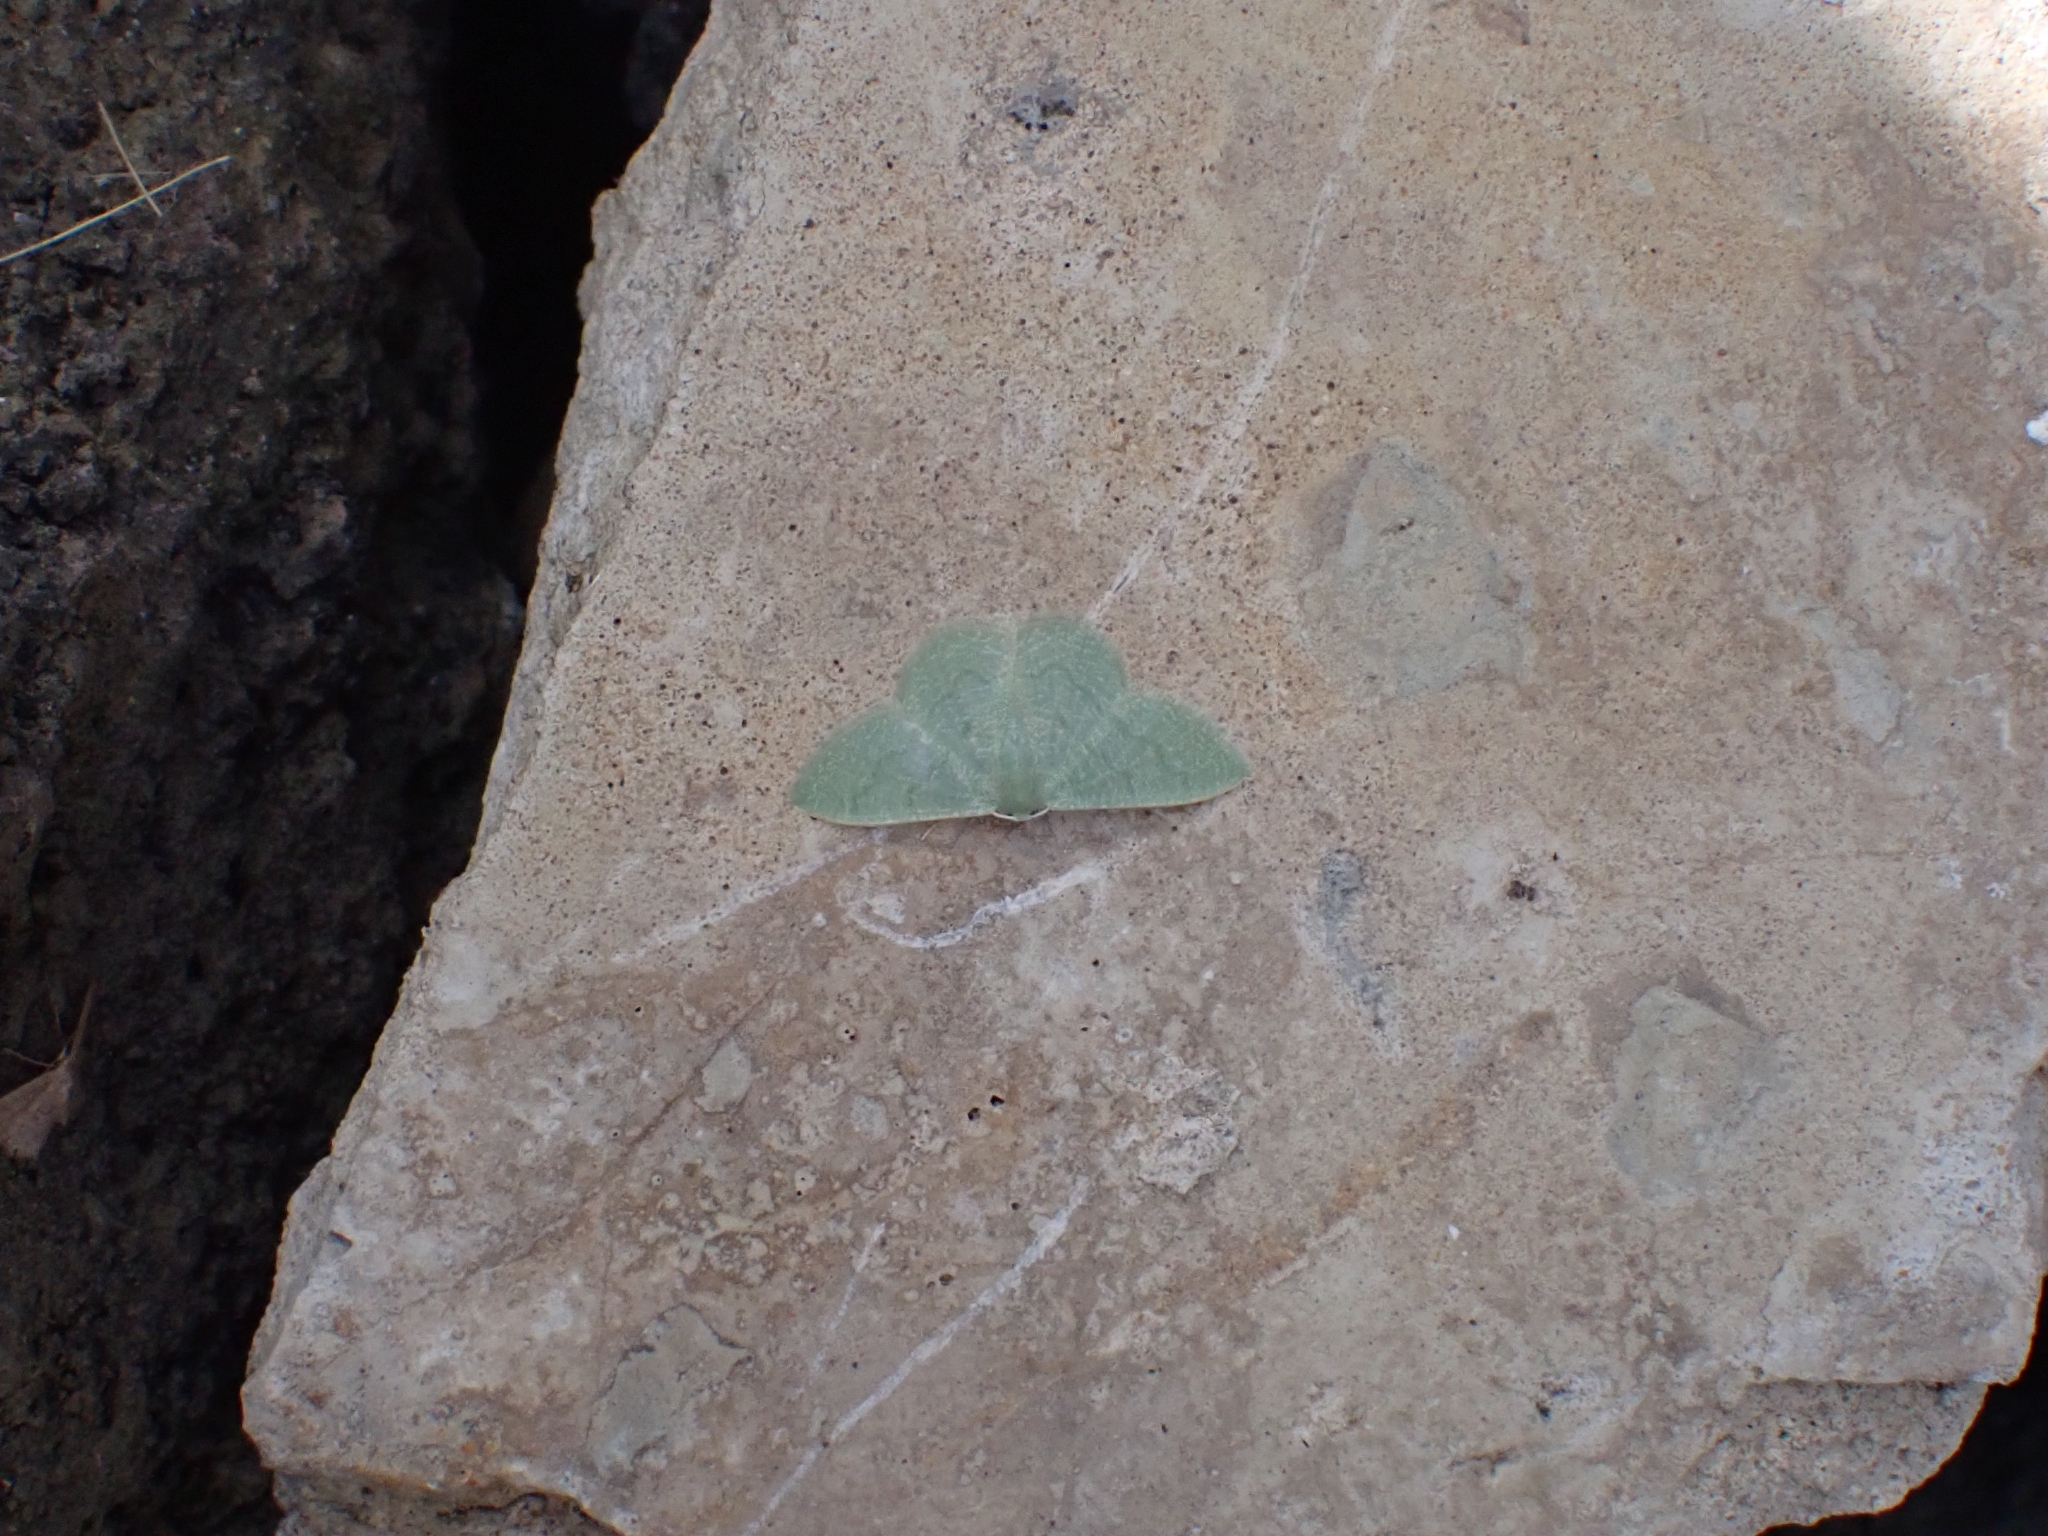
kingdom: Animalia
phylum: Arthropoda
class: Insecta
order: Lepidoptera
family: Geometridae
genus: Phaiogramma
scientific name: Phaiogramma faustinata
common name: Millière's emerald
